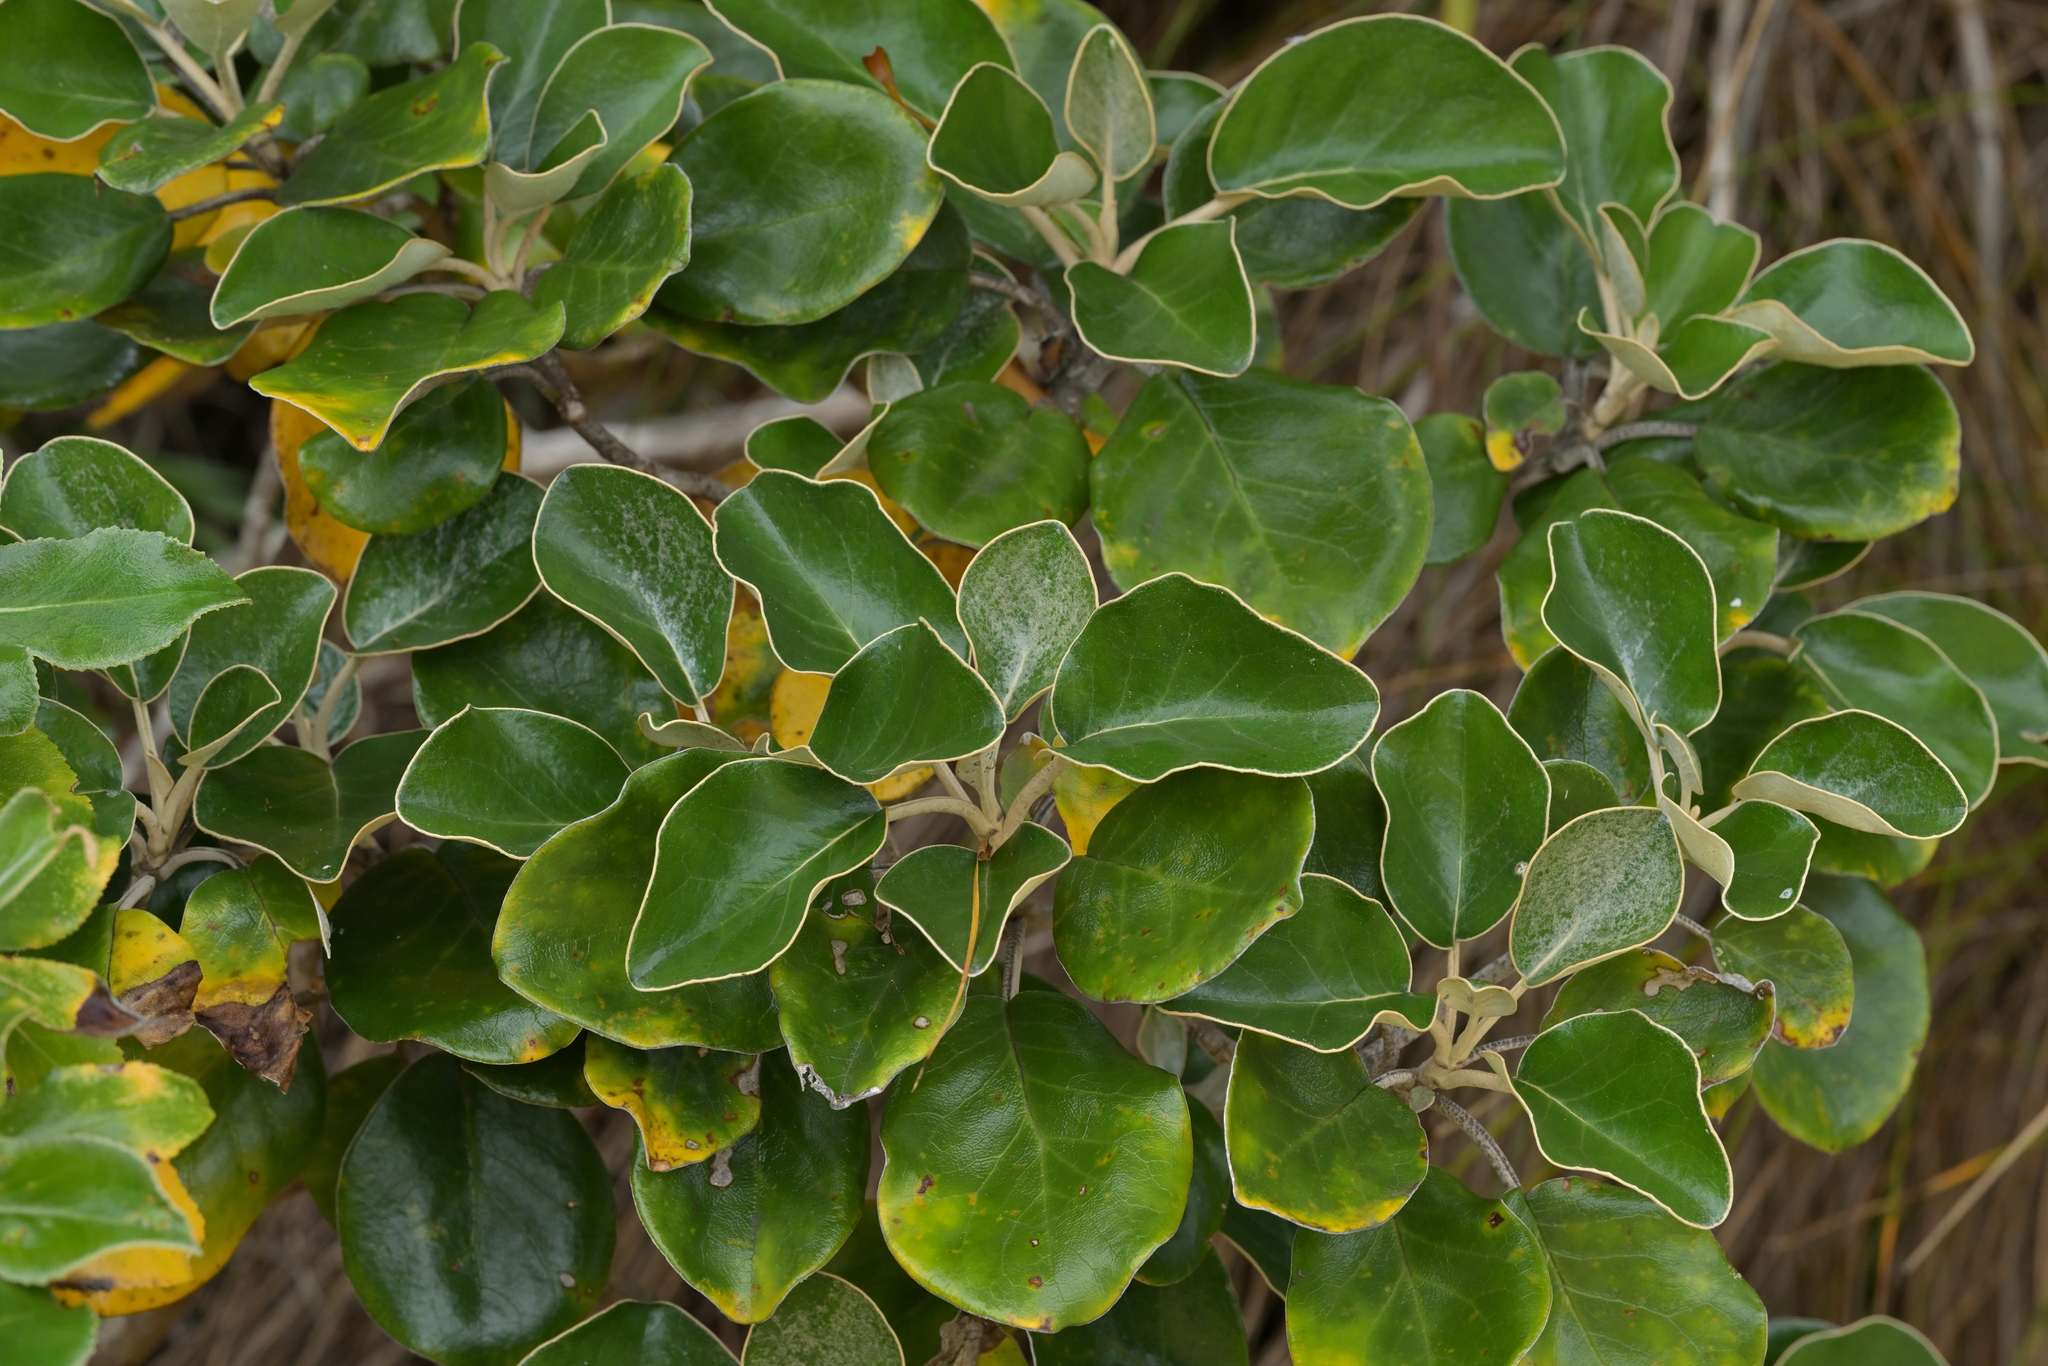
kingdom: Plantae
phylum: Tracheophyta
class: Magnoliopsida
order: Asterales
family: Asteraceae
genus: Brachyglottis
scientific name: Brachyglottis rotundifolia
